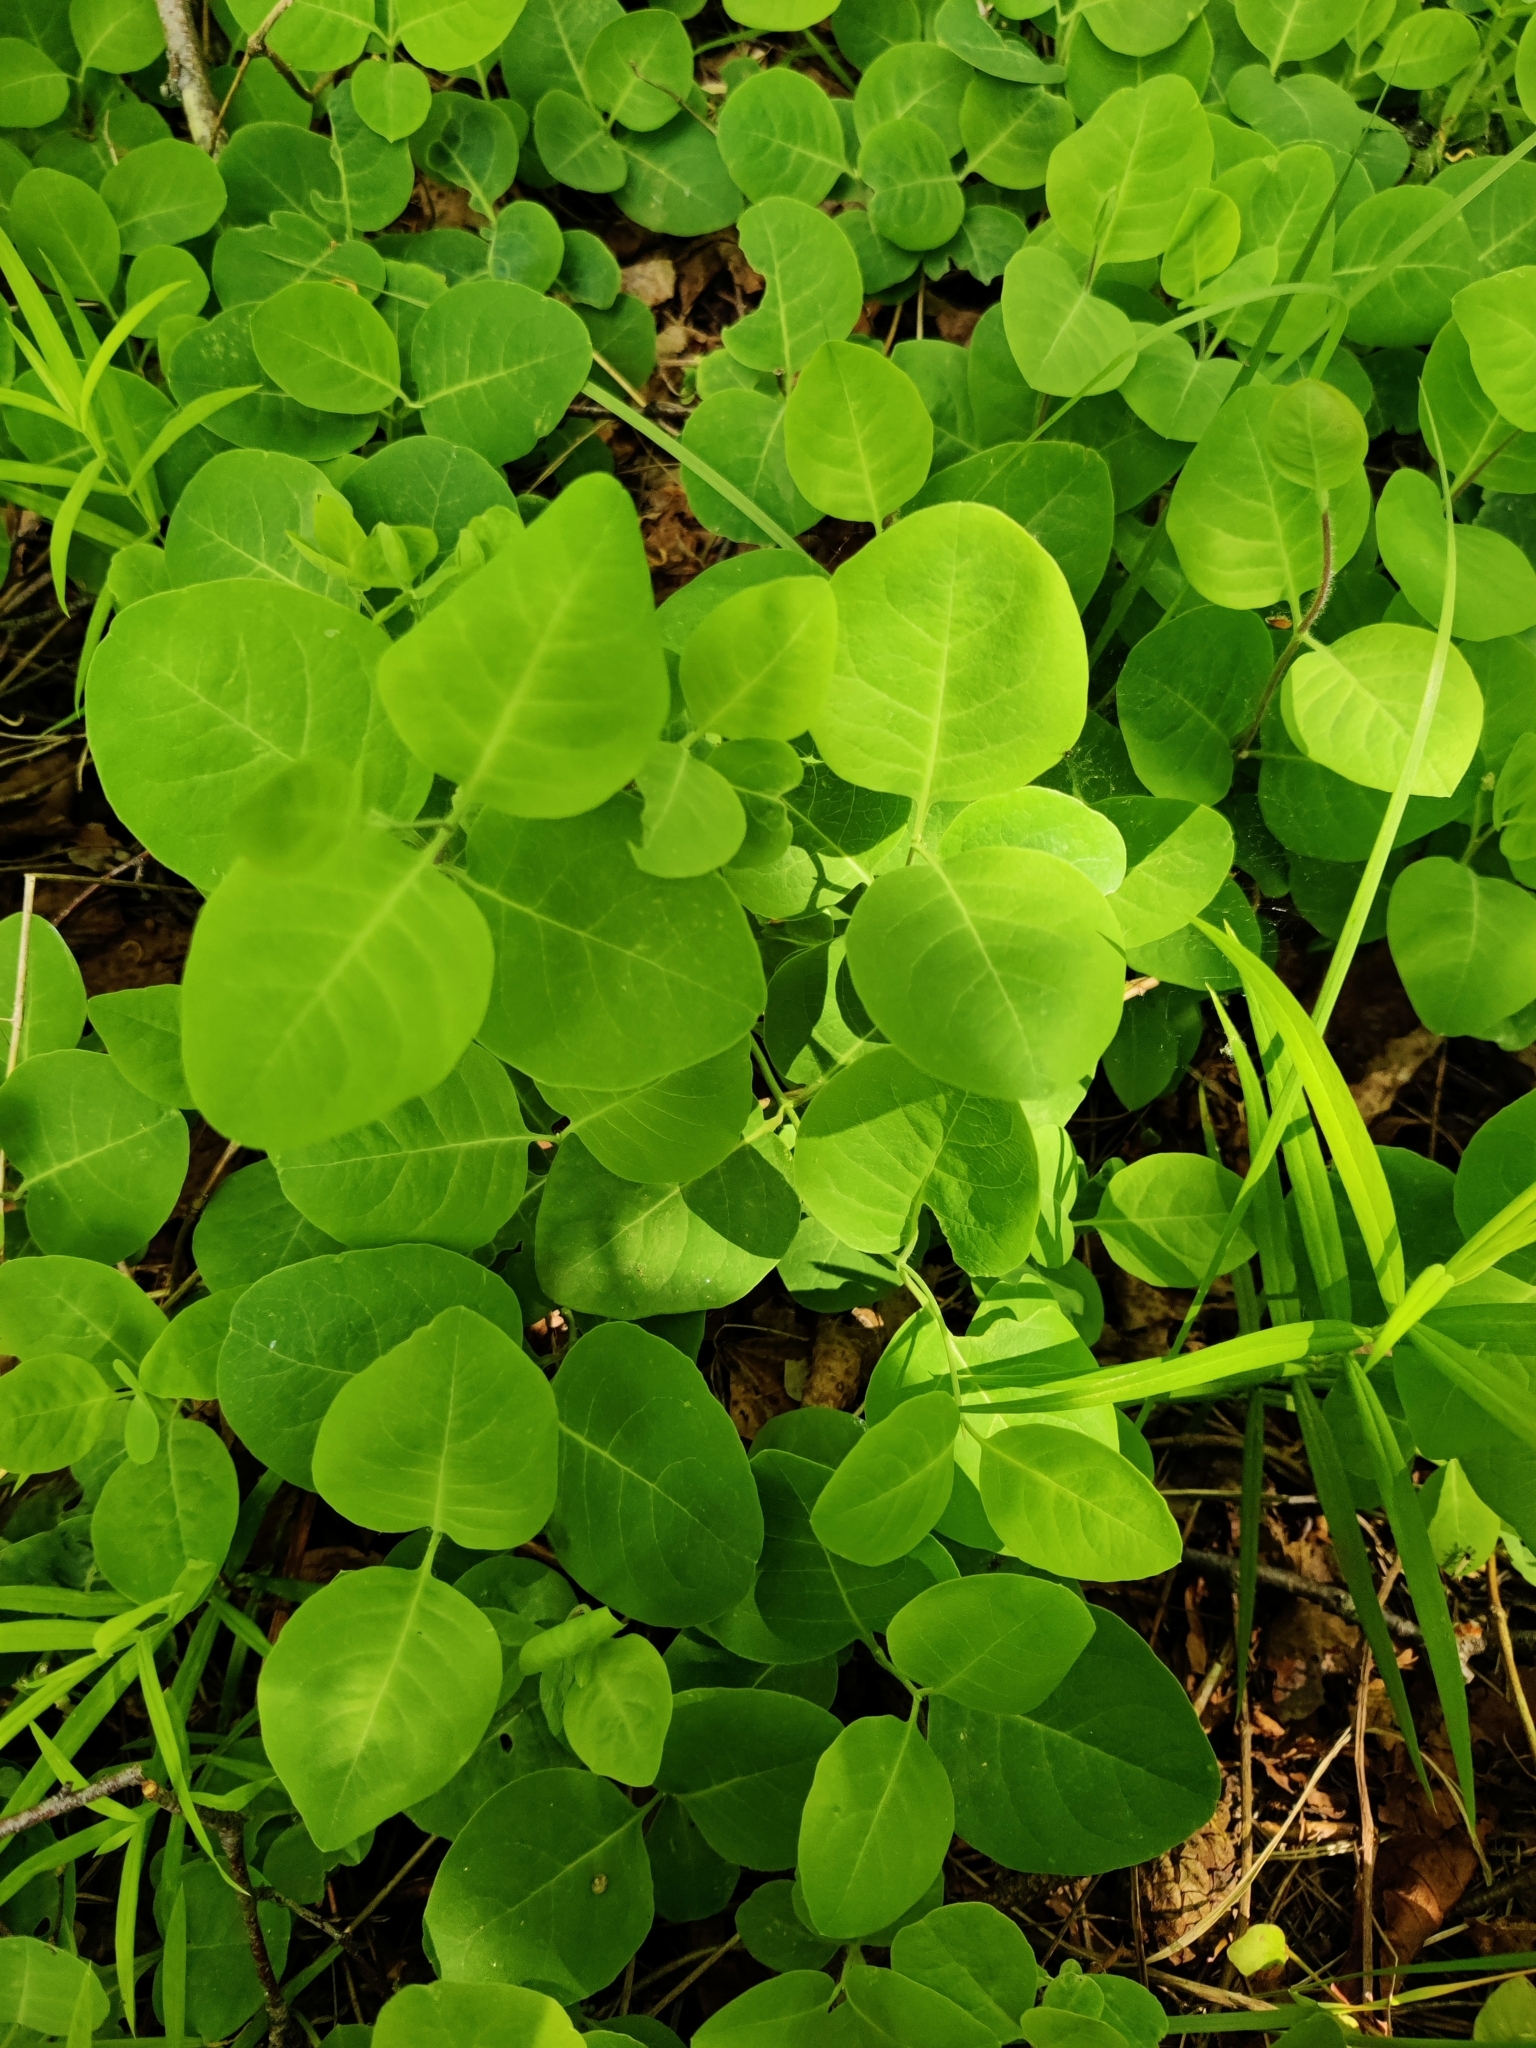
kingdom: Plantae
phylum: Tracheophyta
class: Magnoliopsida
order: Dipsacales
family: Caprifoliaceae
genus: Lonicera
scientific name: Lonicera caprifolium
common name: Perfoliate honeysuckle
